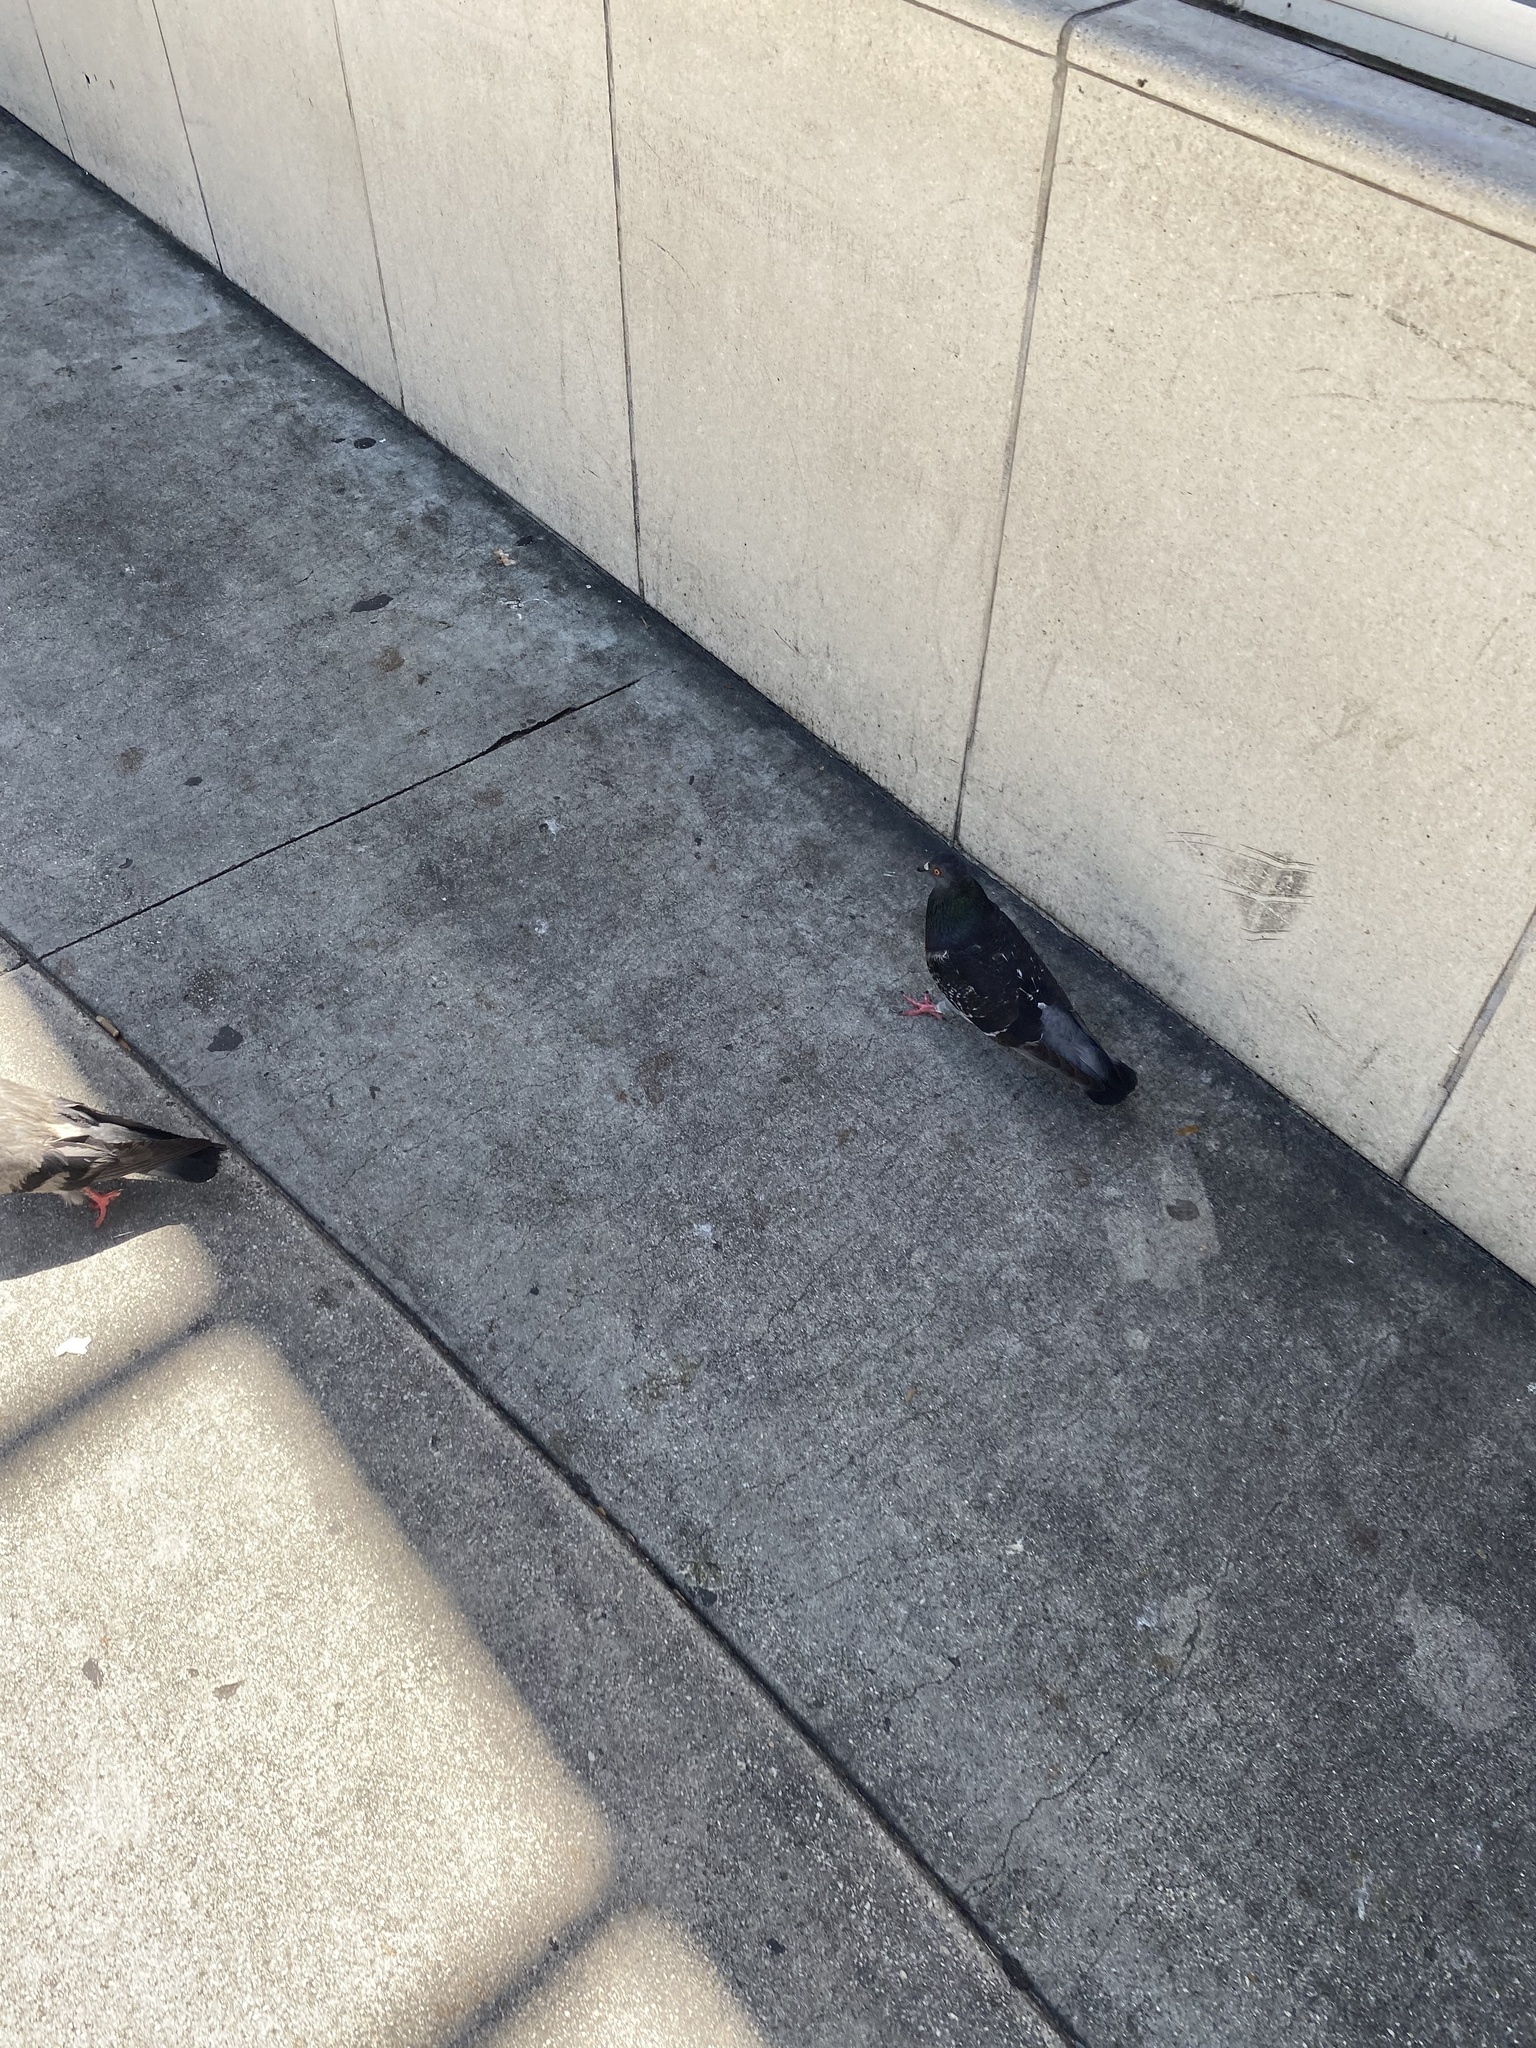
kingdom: Animalia
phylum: Chordata
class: Aves
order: Columbiformes
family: Columbidae
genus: Columba
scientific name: Columba livia
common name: Rock pigeon
